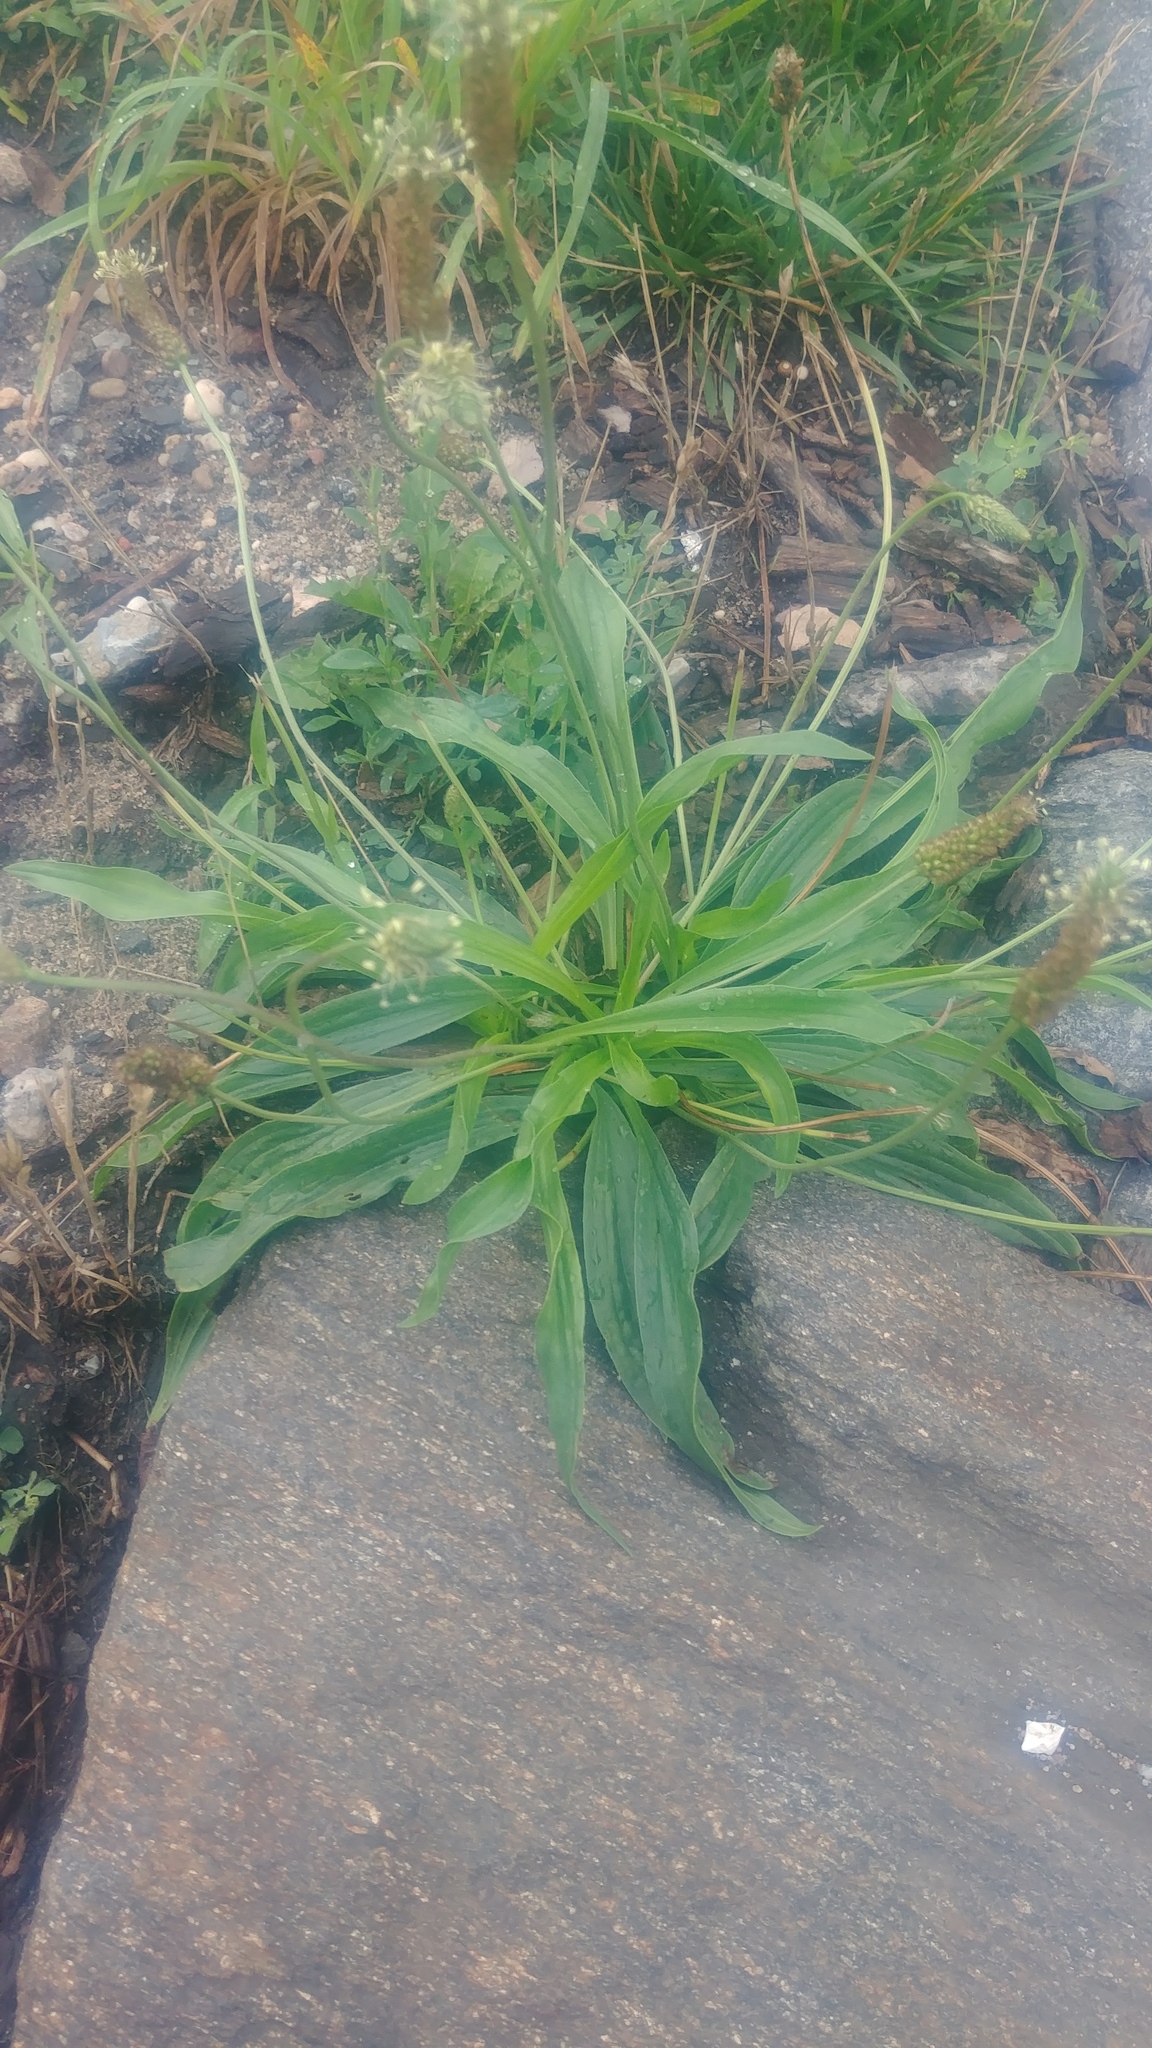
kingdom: Plantae
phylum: Tracheophyta
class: Magnoliopsida
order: Lamiales
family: Plantaginaceae
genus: Plantago
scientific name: Plantago lanceolata
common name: Ribwort plantain
